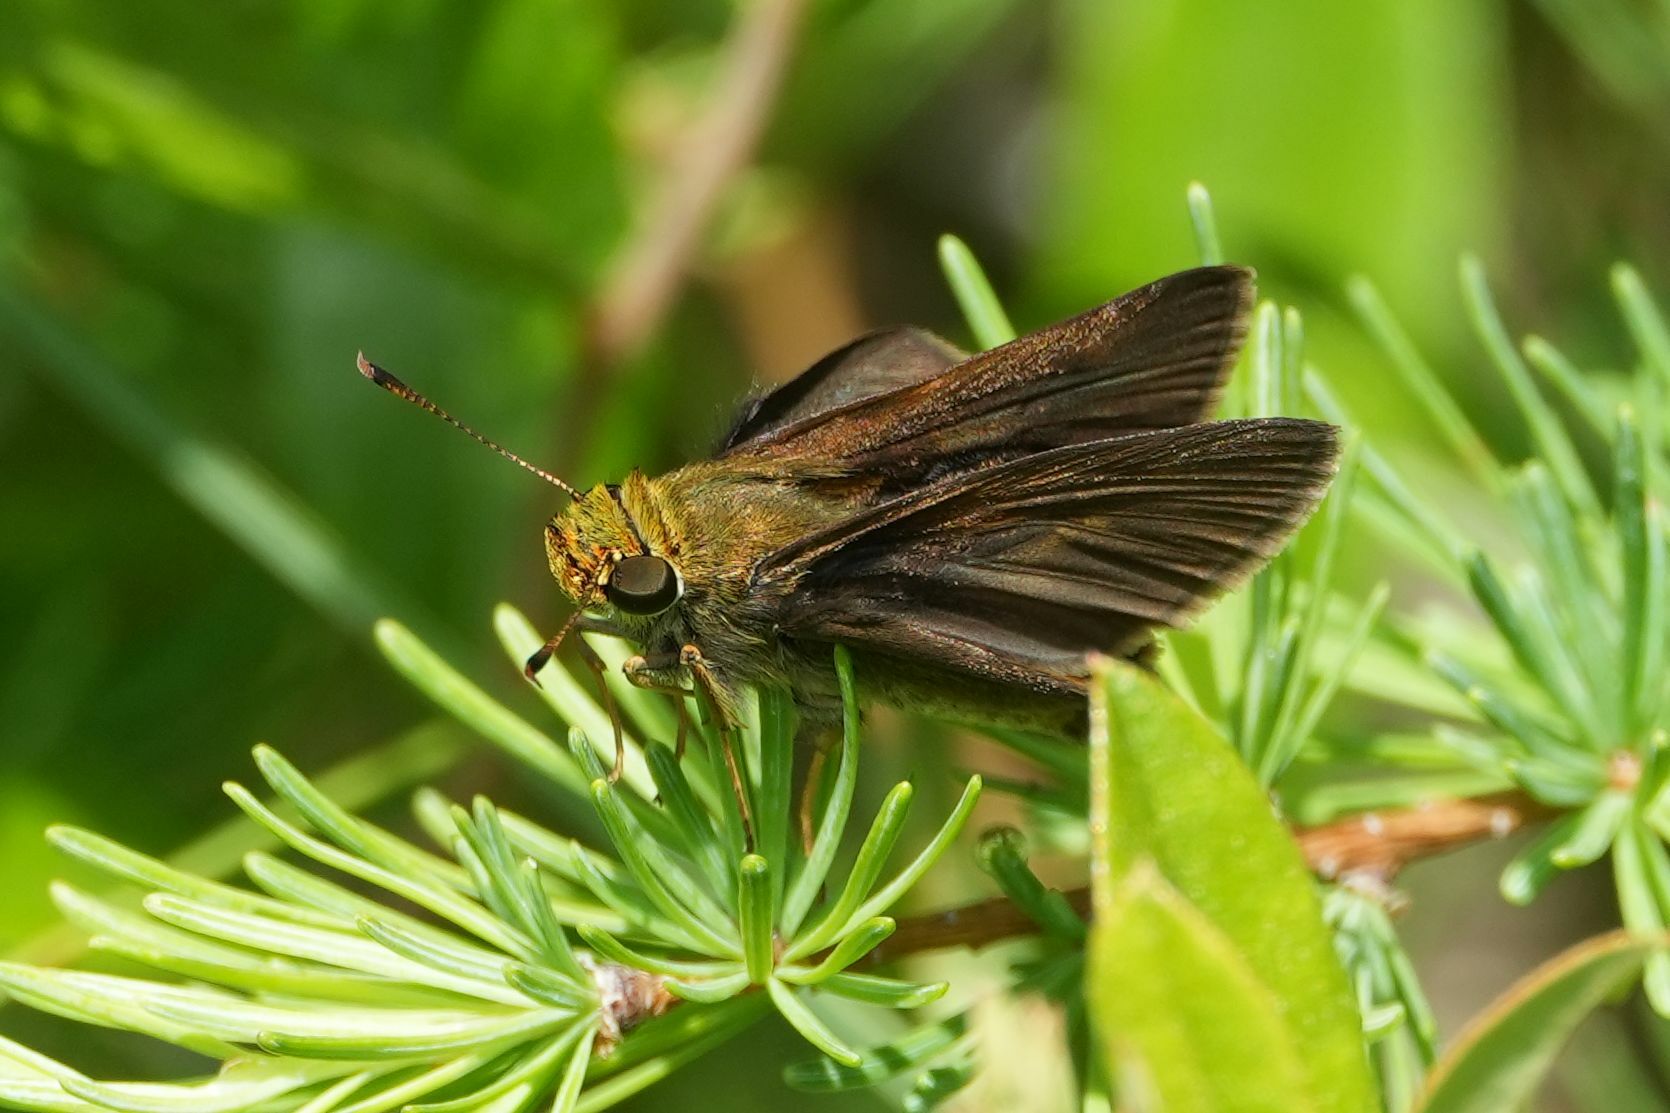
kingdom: Animalia
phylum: Arthropoda
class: Insecta
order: Lepidoptera
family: Hesperiidae
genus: Euphyes
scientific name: Euphyes vestris
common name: Dun skipper
